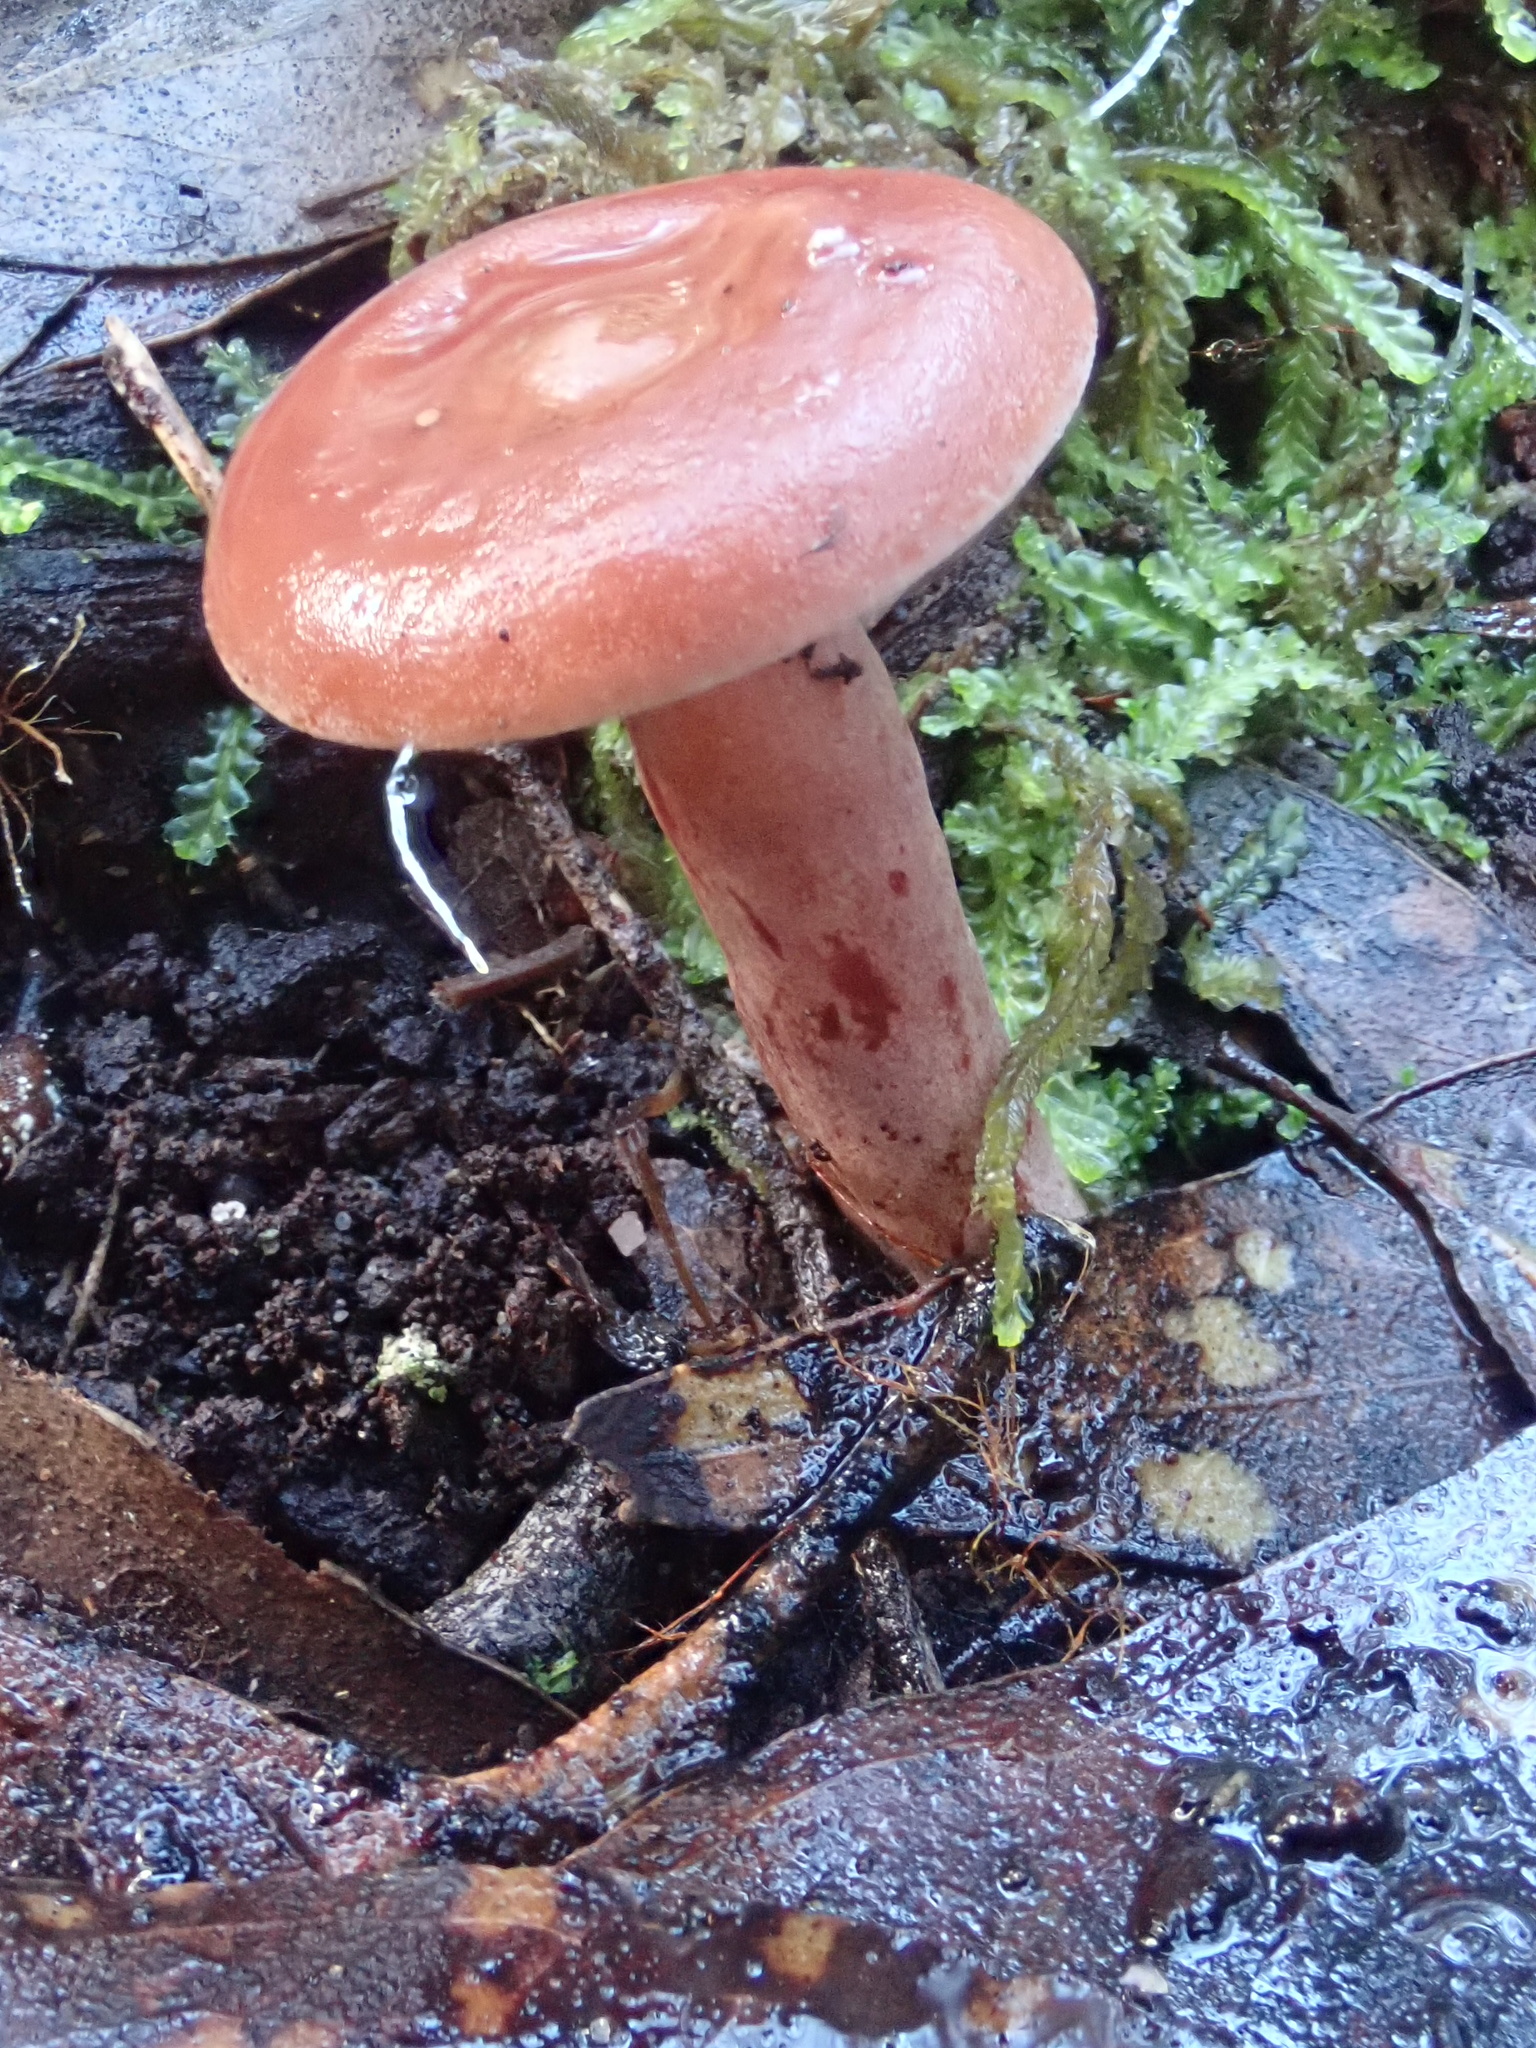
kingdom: Fungi
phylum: Basidiomycota
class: Agaricomycetes
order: Russulales
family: Russulaceae
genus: Lactarius
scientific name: Lactarius eucalypti
